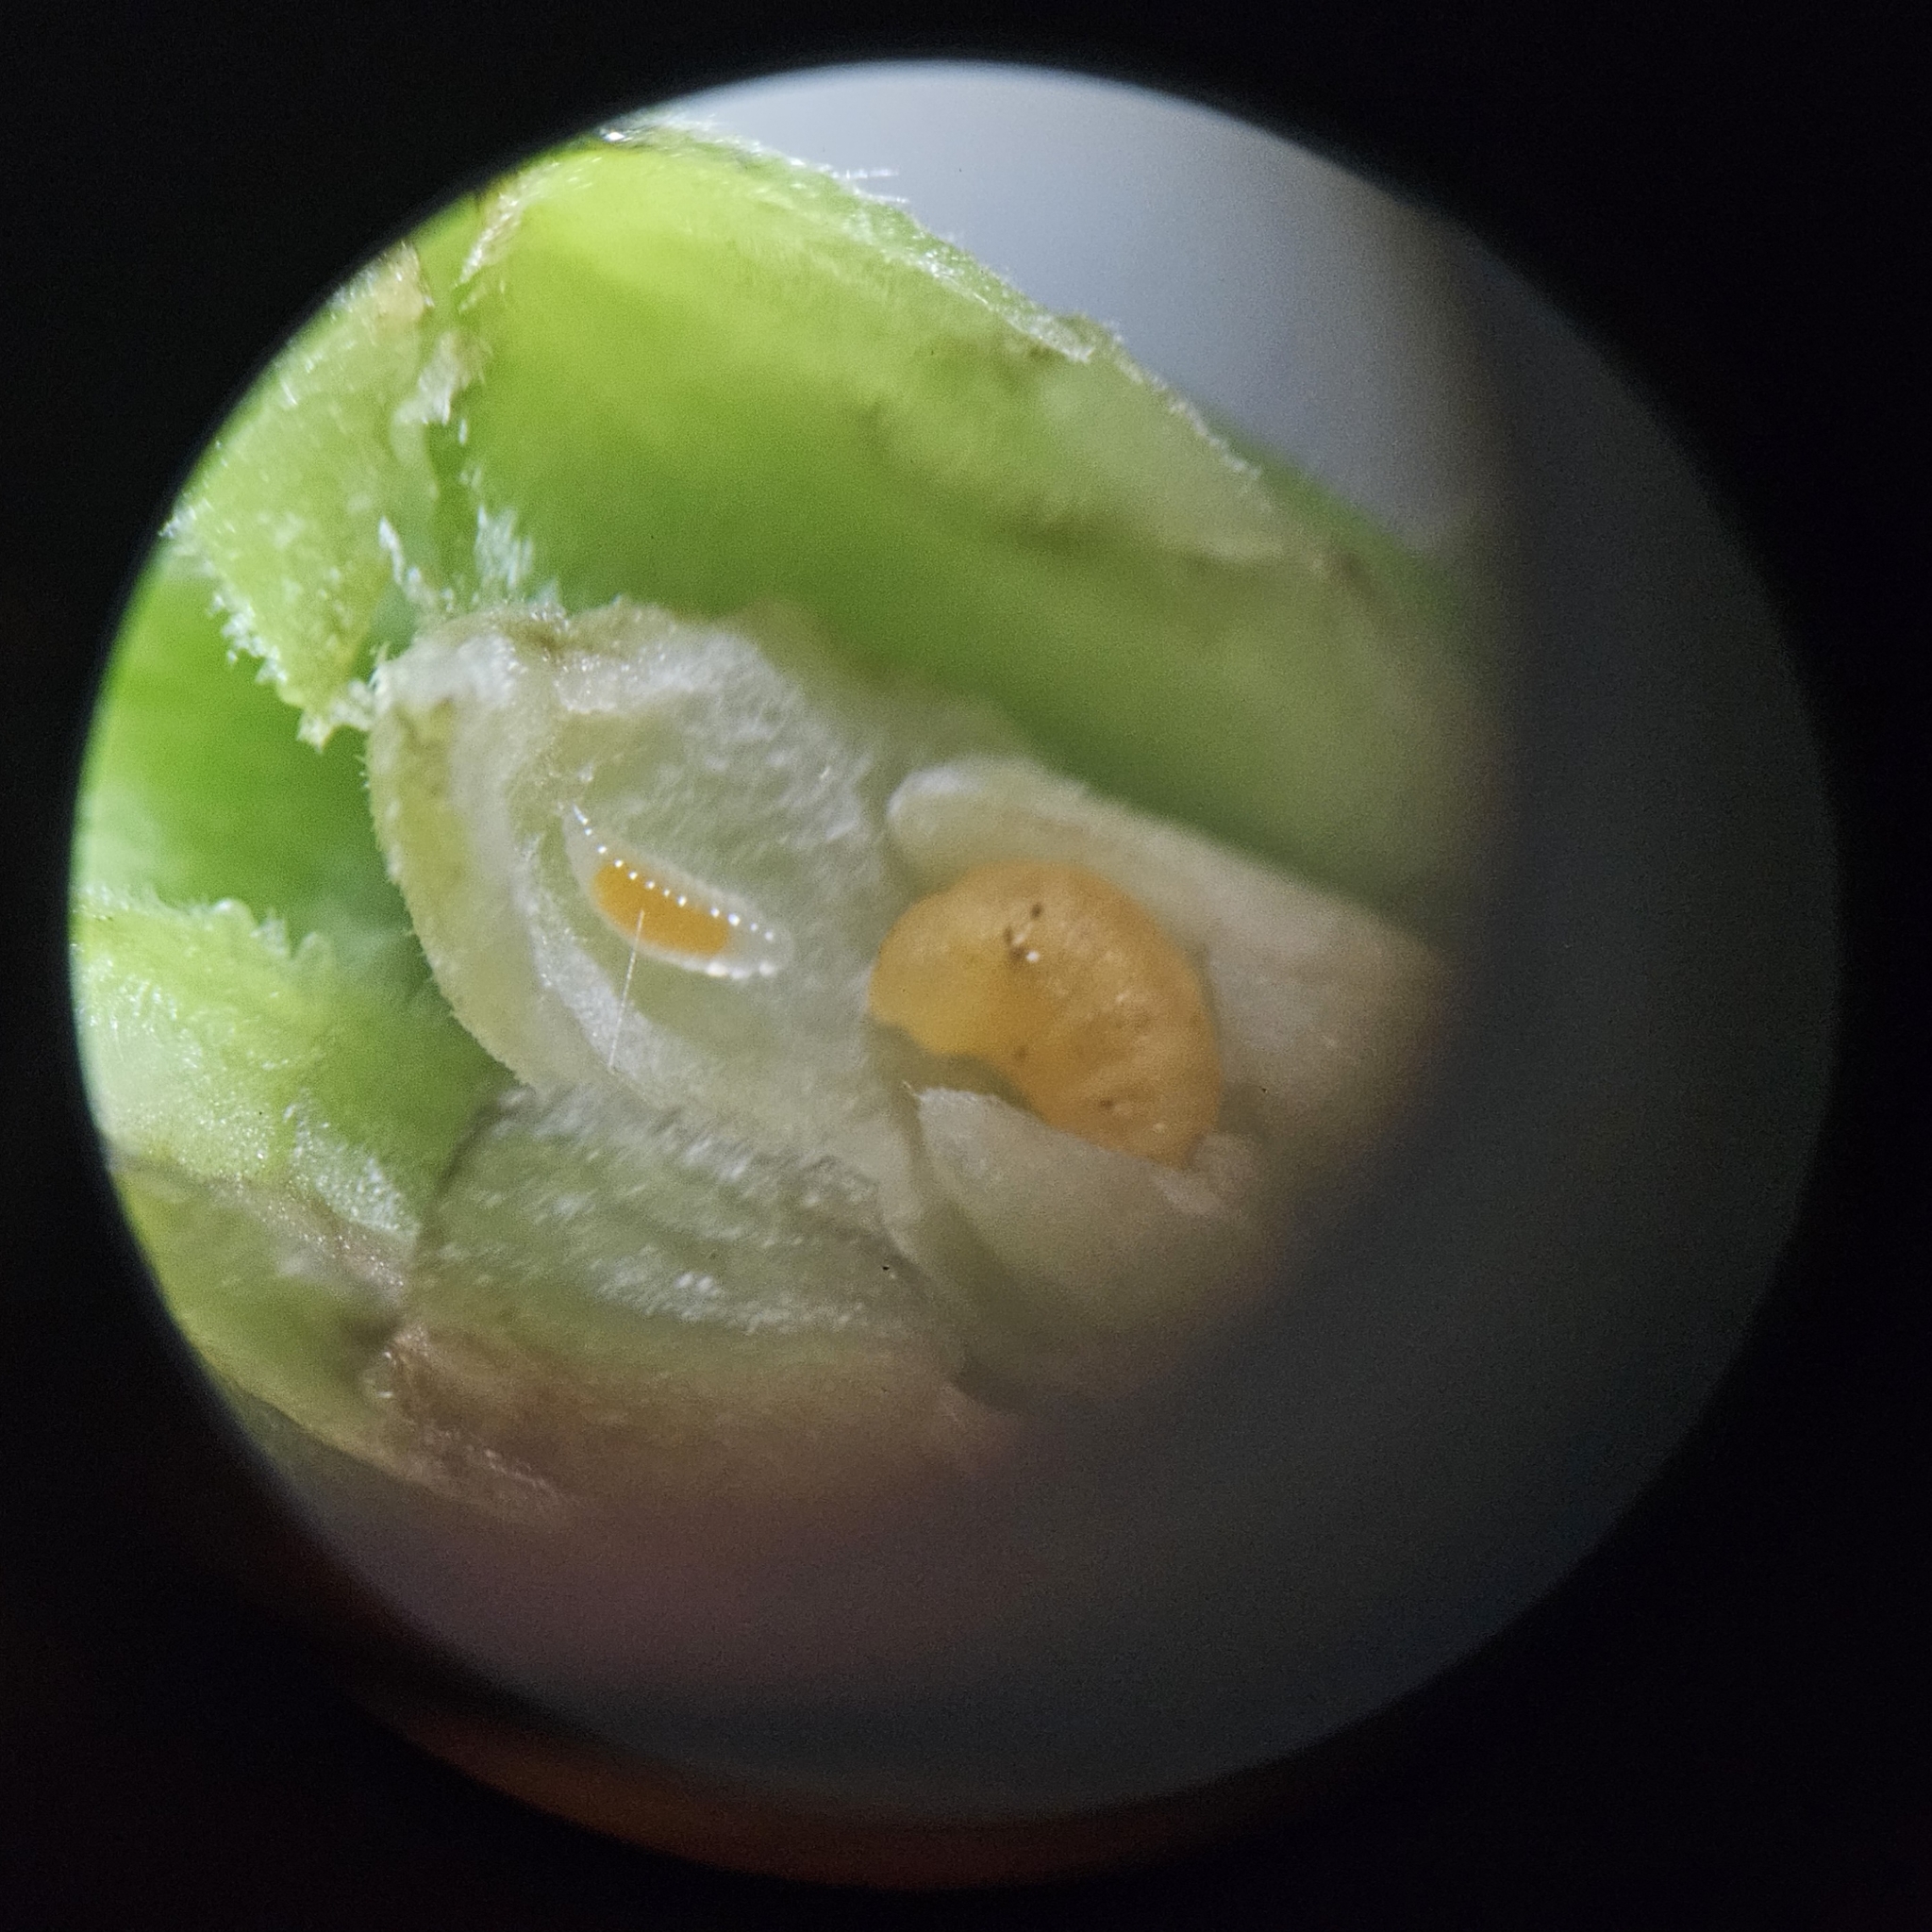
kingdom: Animalia
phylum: Arthropoda
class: Insecta
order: Diptera
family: Cecidomyiidae
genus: Asphondylia
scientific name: Asphondylia solidaginis
